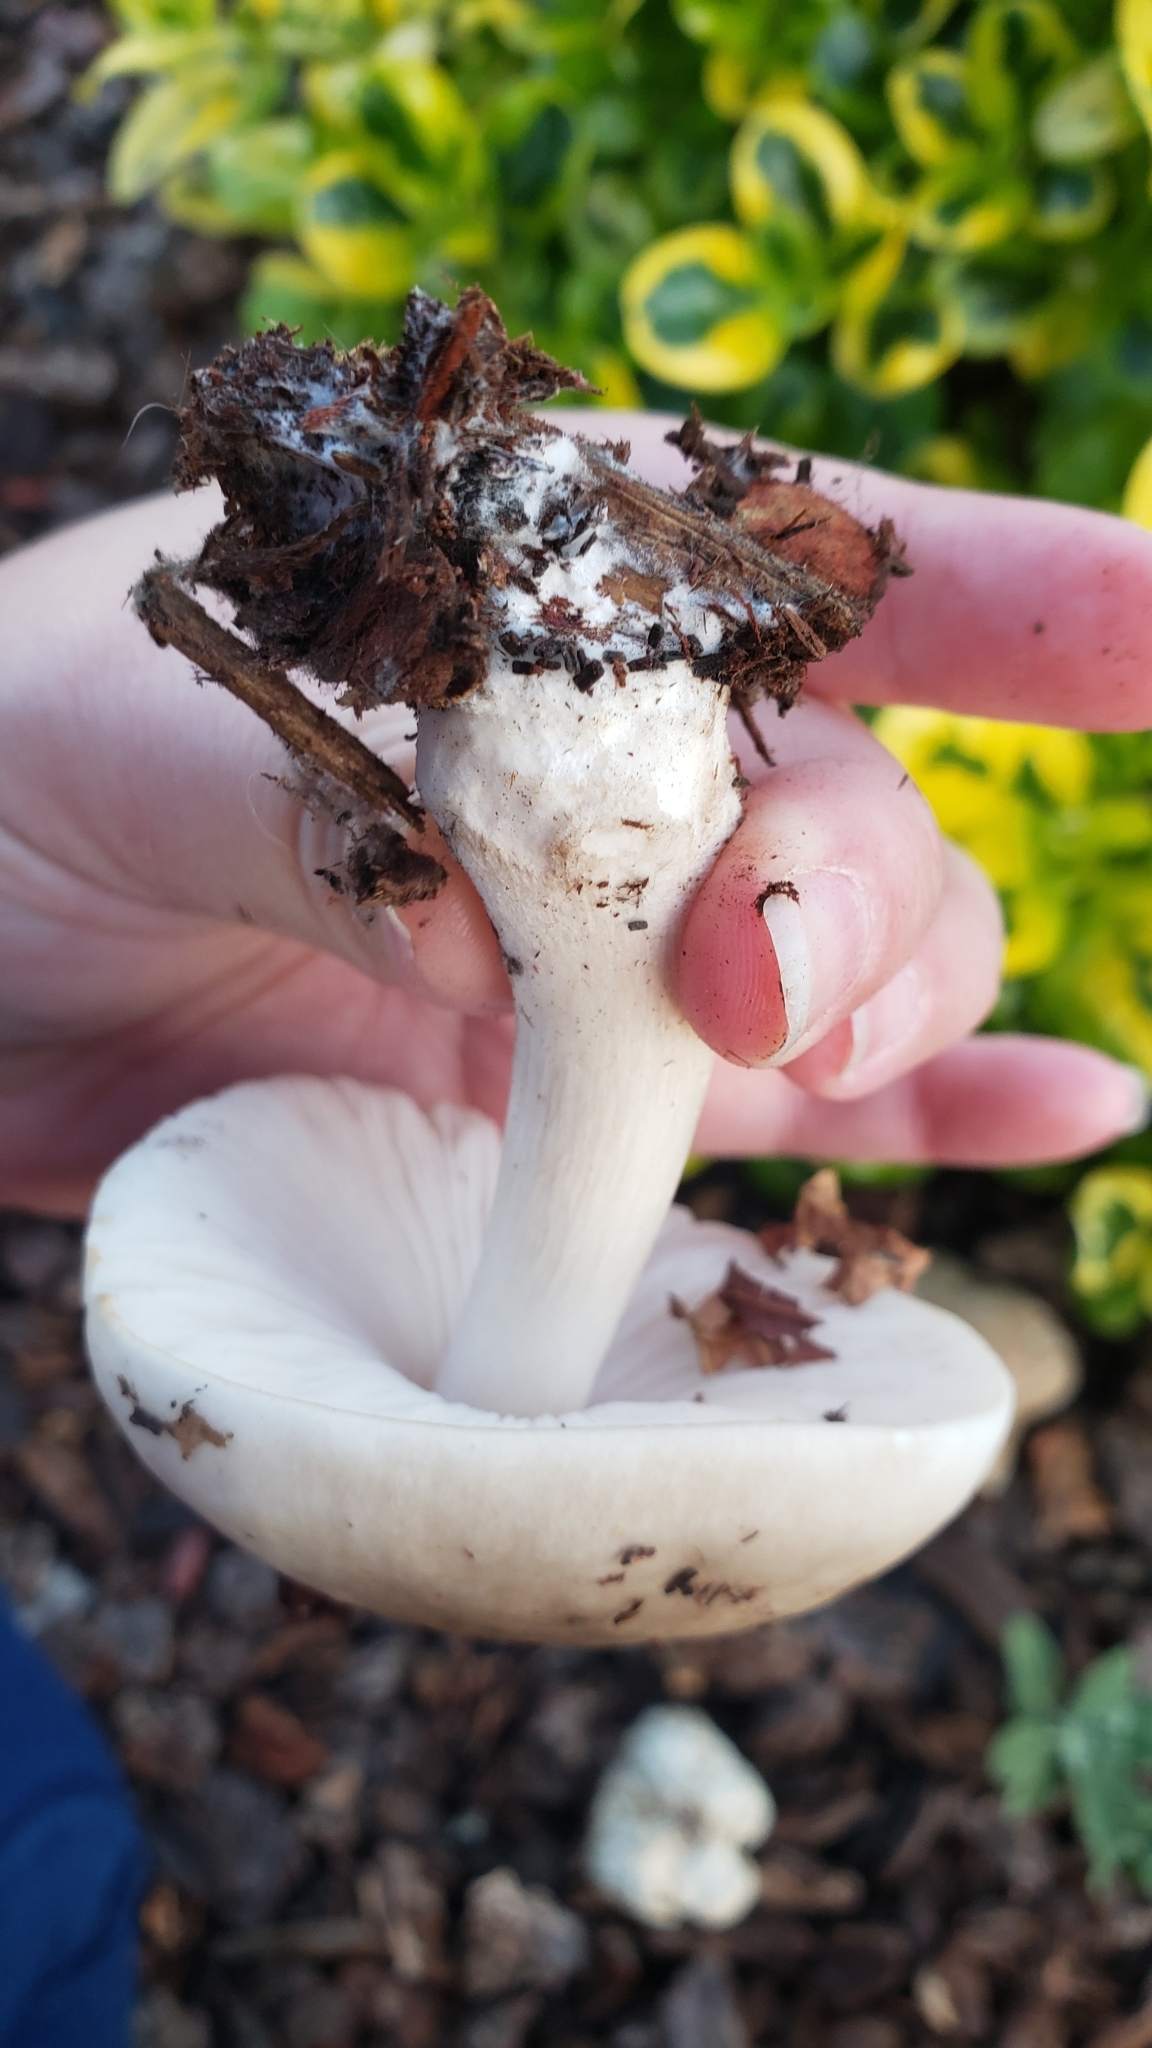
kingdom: Fungi
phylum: Basidiomycota
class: Agaricomycetes
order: Agaricales
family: Pluteaceae
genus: Pluteus
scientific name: Pluteus petasatus
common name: Scaly shield
